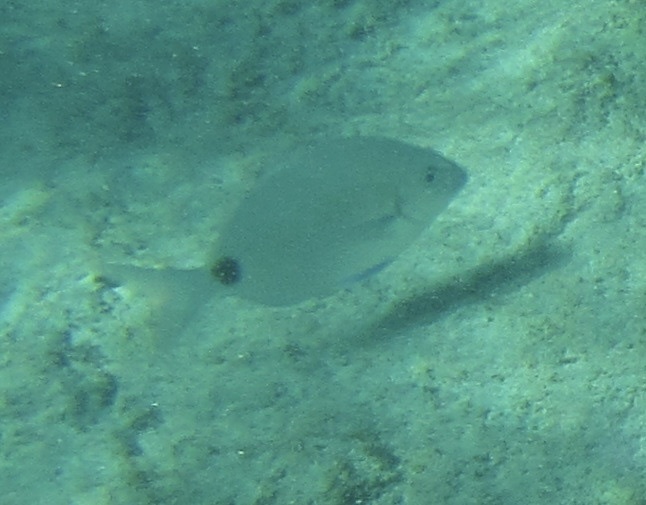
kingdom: Animalia
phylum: Chordata
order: Perciformes
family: Sparidae
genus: Diplodus
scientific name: Diplodus capensis
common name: Blacktail
